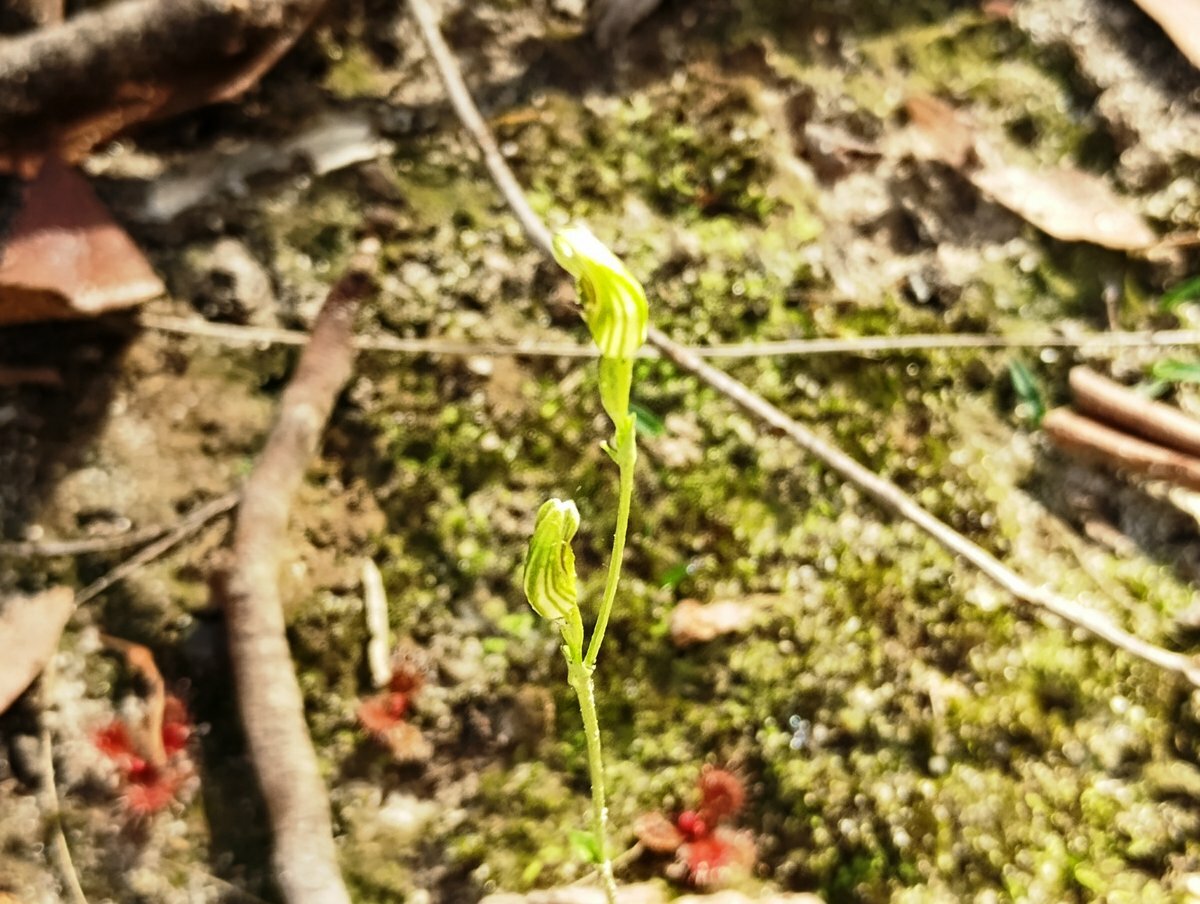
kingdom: Plantae
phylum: Tracheophyta
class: Liliopsida
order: Asparagales
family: Orchidaceae
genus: Pterostylis
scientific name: Pterostylis parviflora
